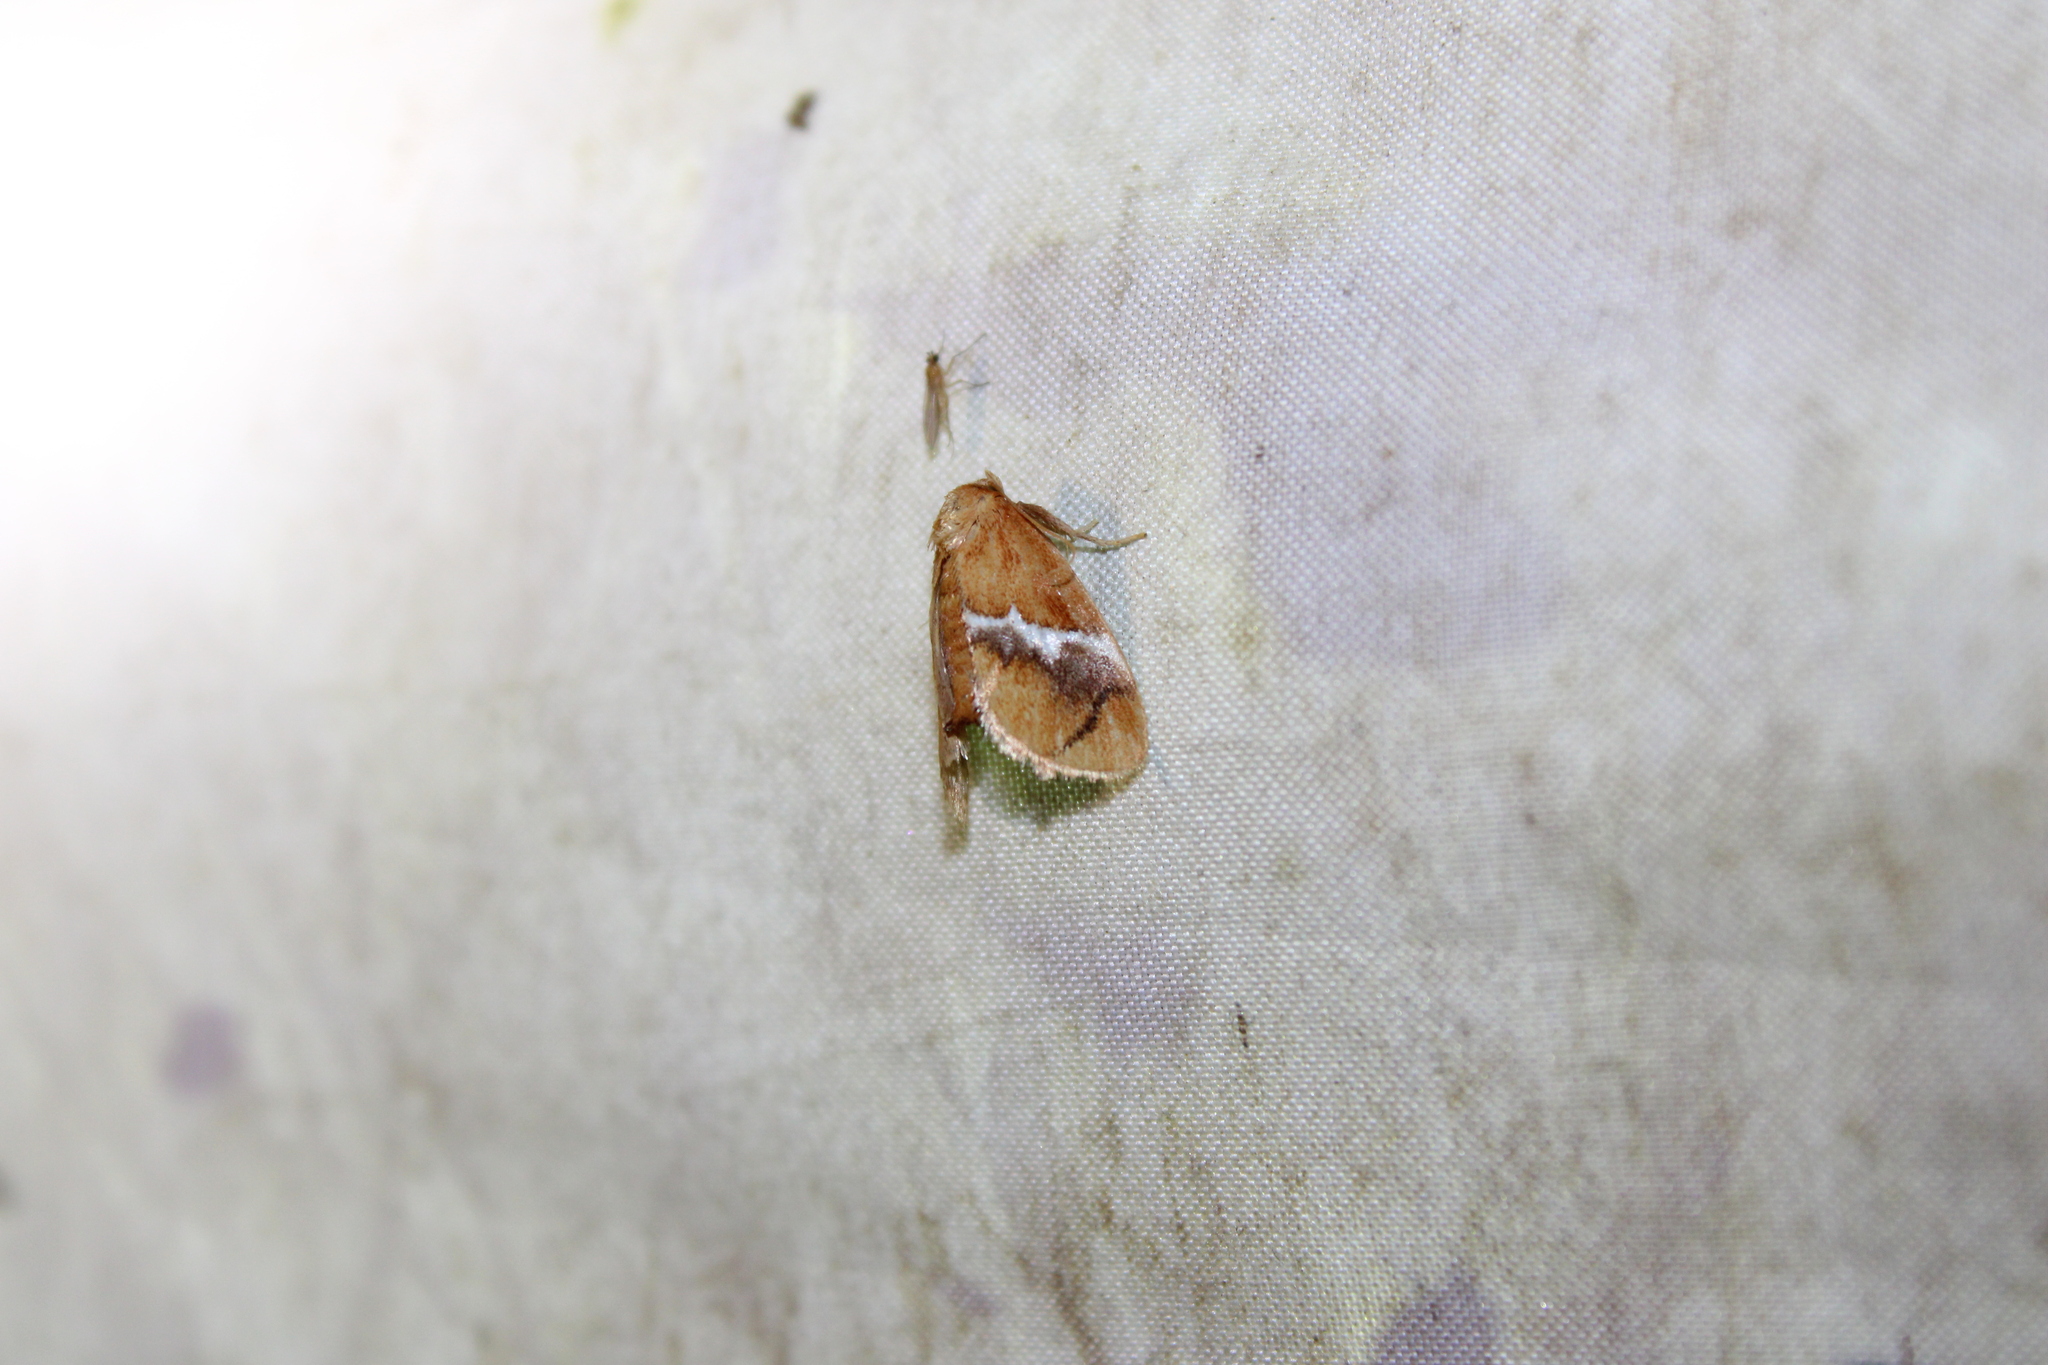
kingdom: Animalia
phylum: Arthropoda
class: Insecta
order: Lepidoptera
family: Limacodidae
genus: Lithacodes
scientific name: Lithacodes fasciola
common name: Yellow-shouldered slug moth
